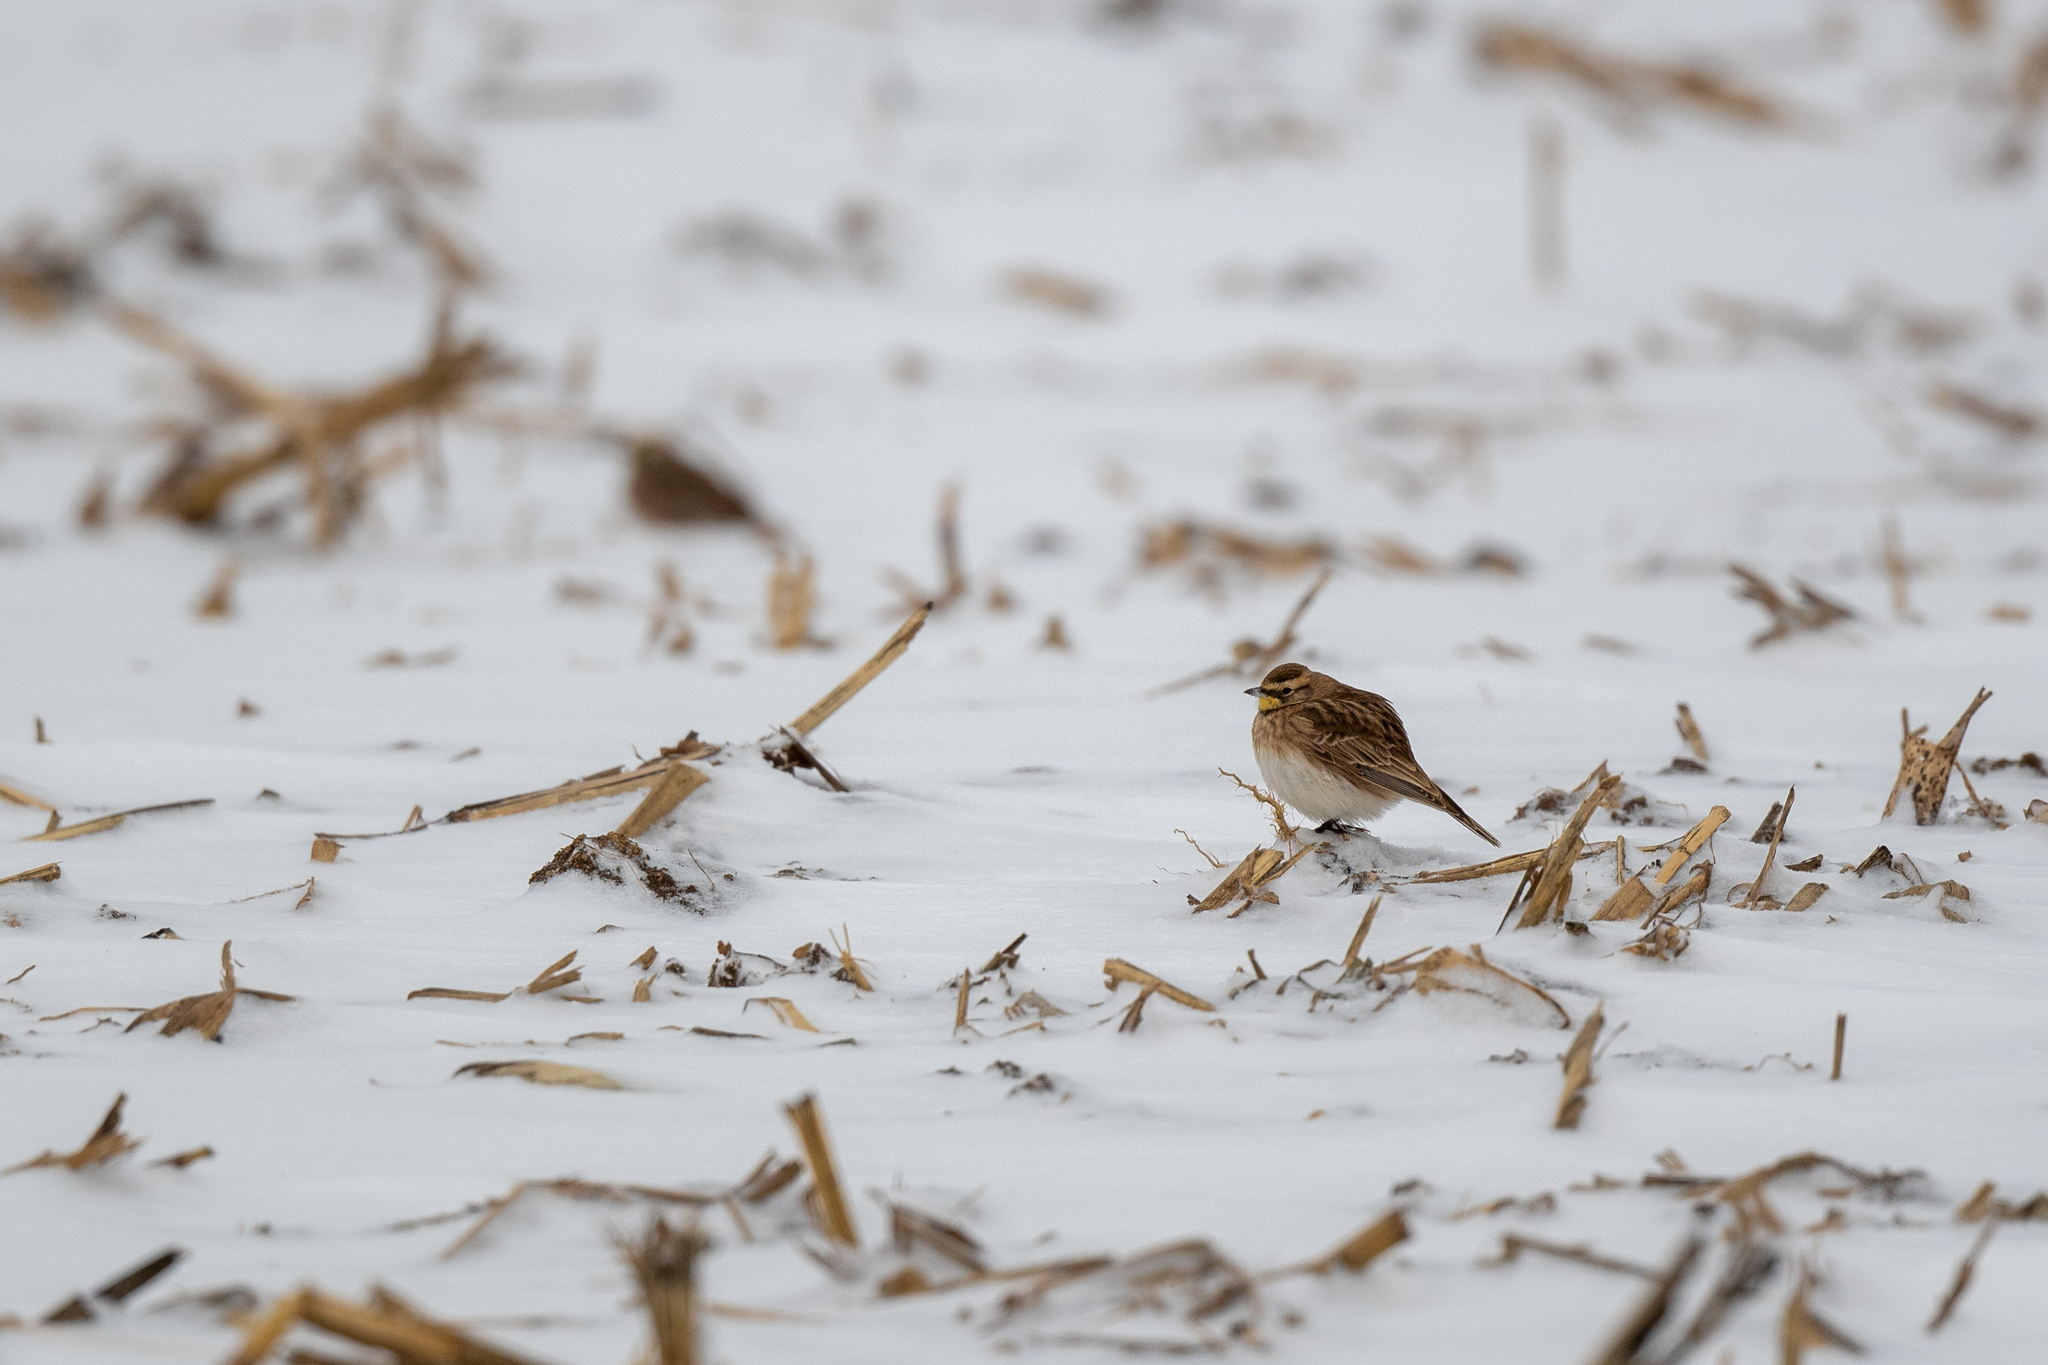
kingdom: Animalia
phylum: Chordata
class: Aves
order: Passeriformes
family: Alaudidae
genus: Eremophila
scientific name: Eremophila alpestris
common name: Horned lark
